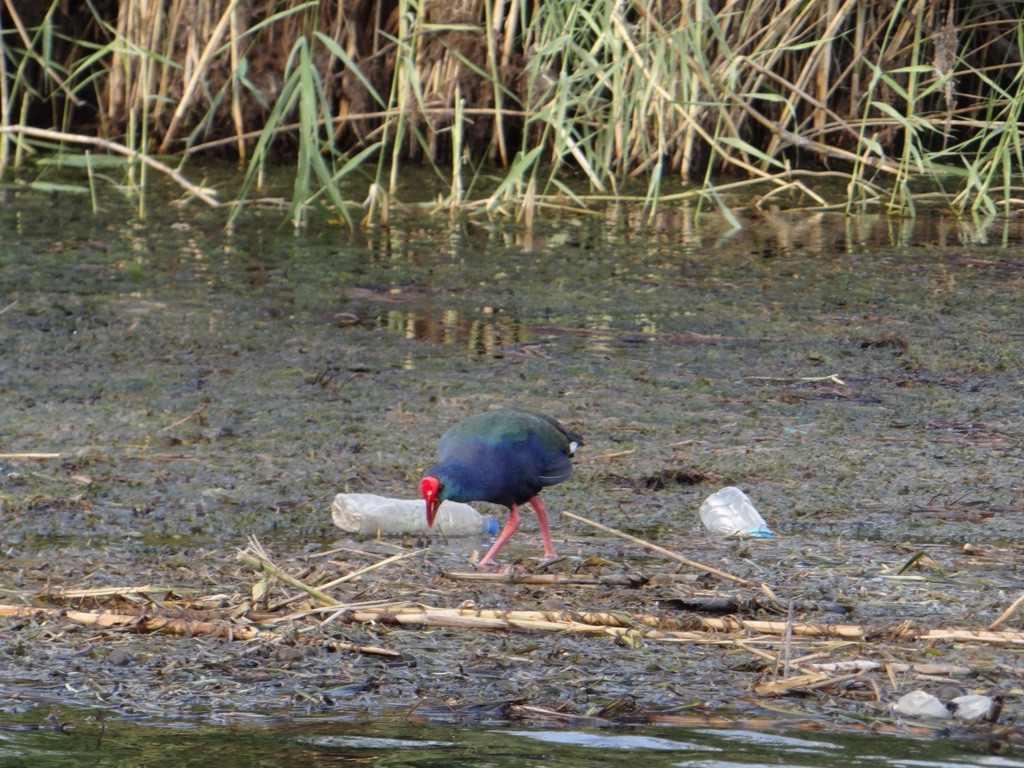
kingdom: Animalia
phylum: Chordata
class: Aves
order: Gruiformes
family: Rallidae
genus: Porphyrio
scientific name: Porphyrio porphyrio
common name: Purple swamphen
